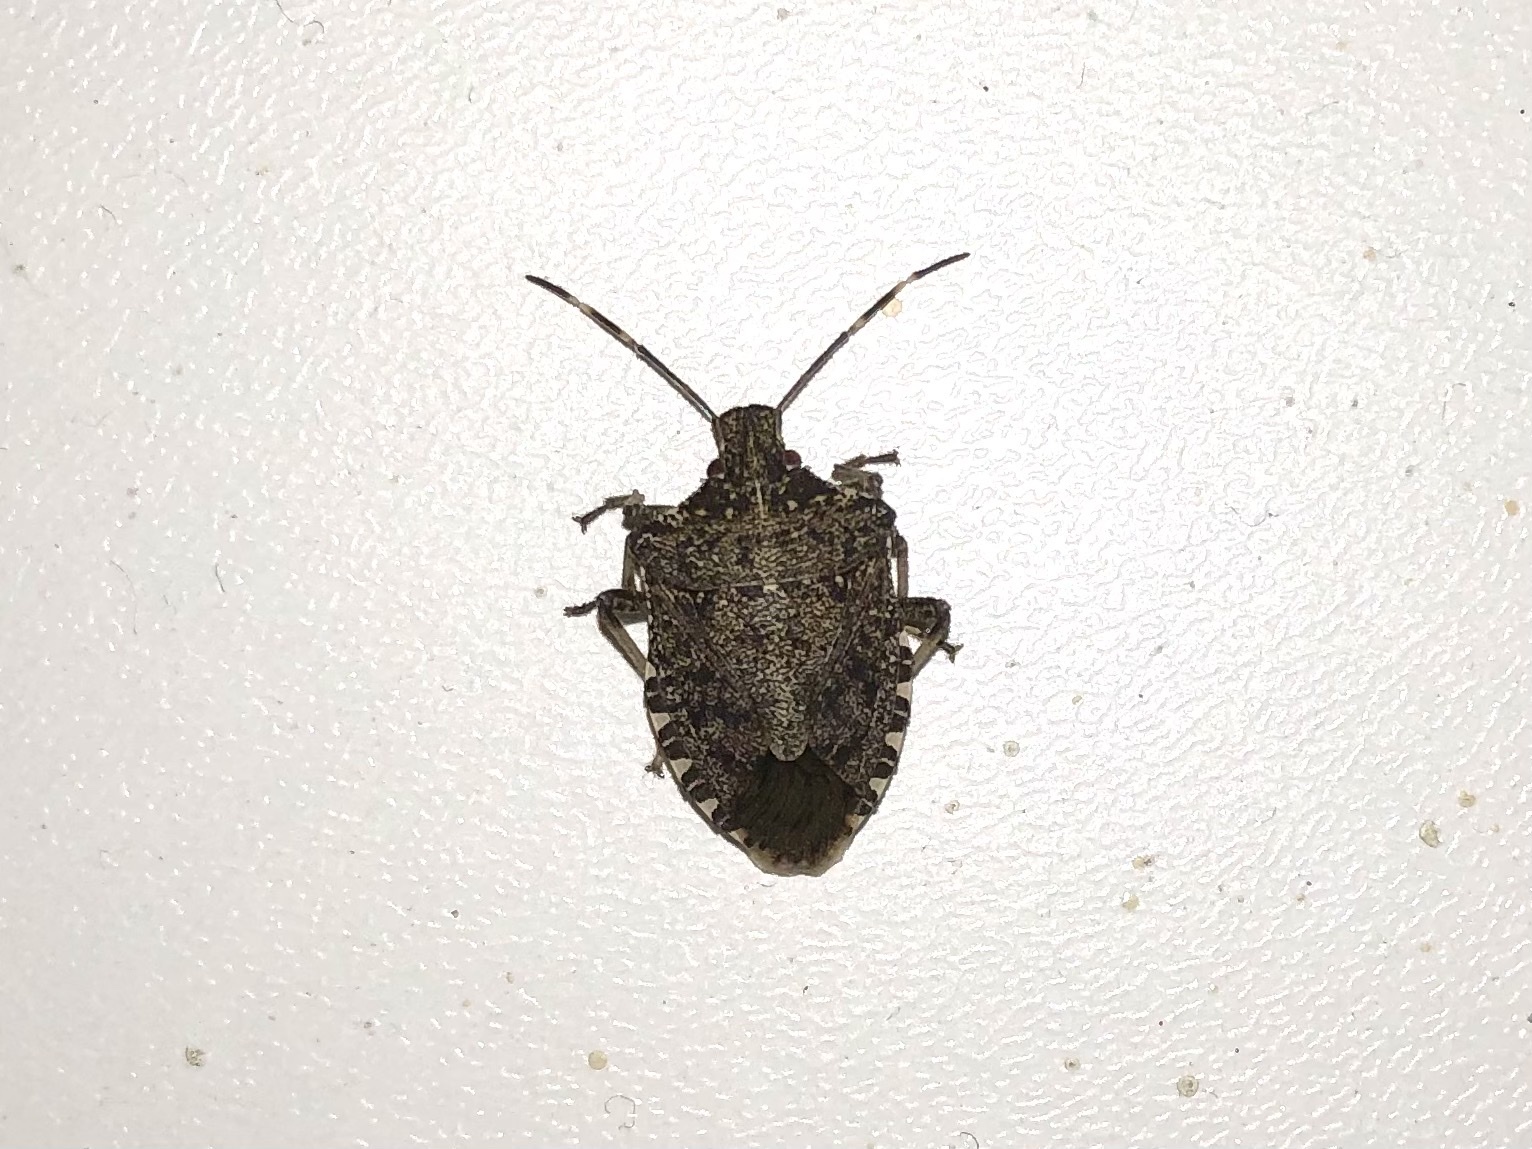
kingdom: Animalia
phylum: Arthropoda
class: Insecta
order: Hemiptera
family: Pentatomidae
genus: Halyomorpha
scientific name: Halyomorpha halys
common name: Brown marmorated stink bug
